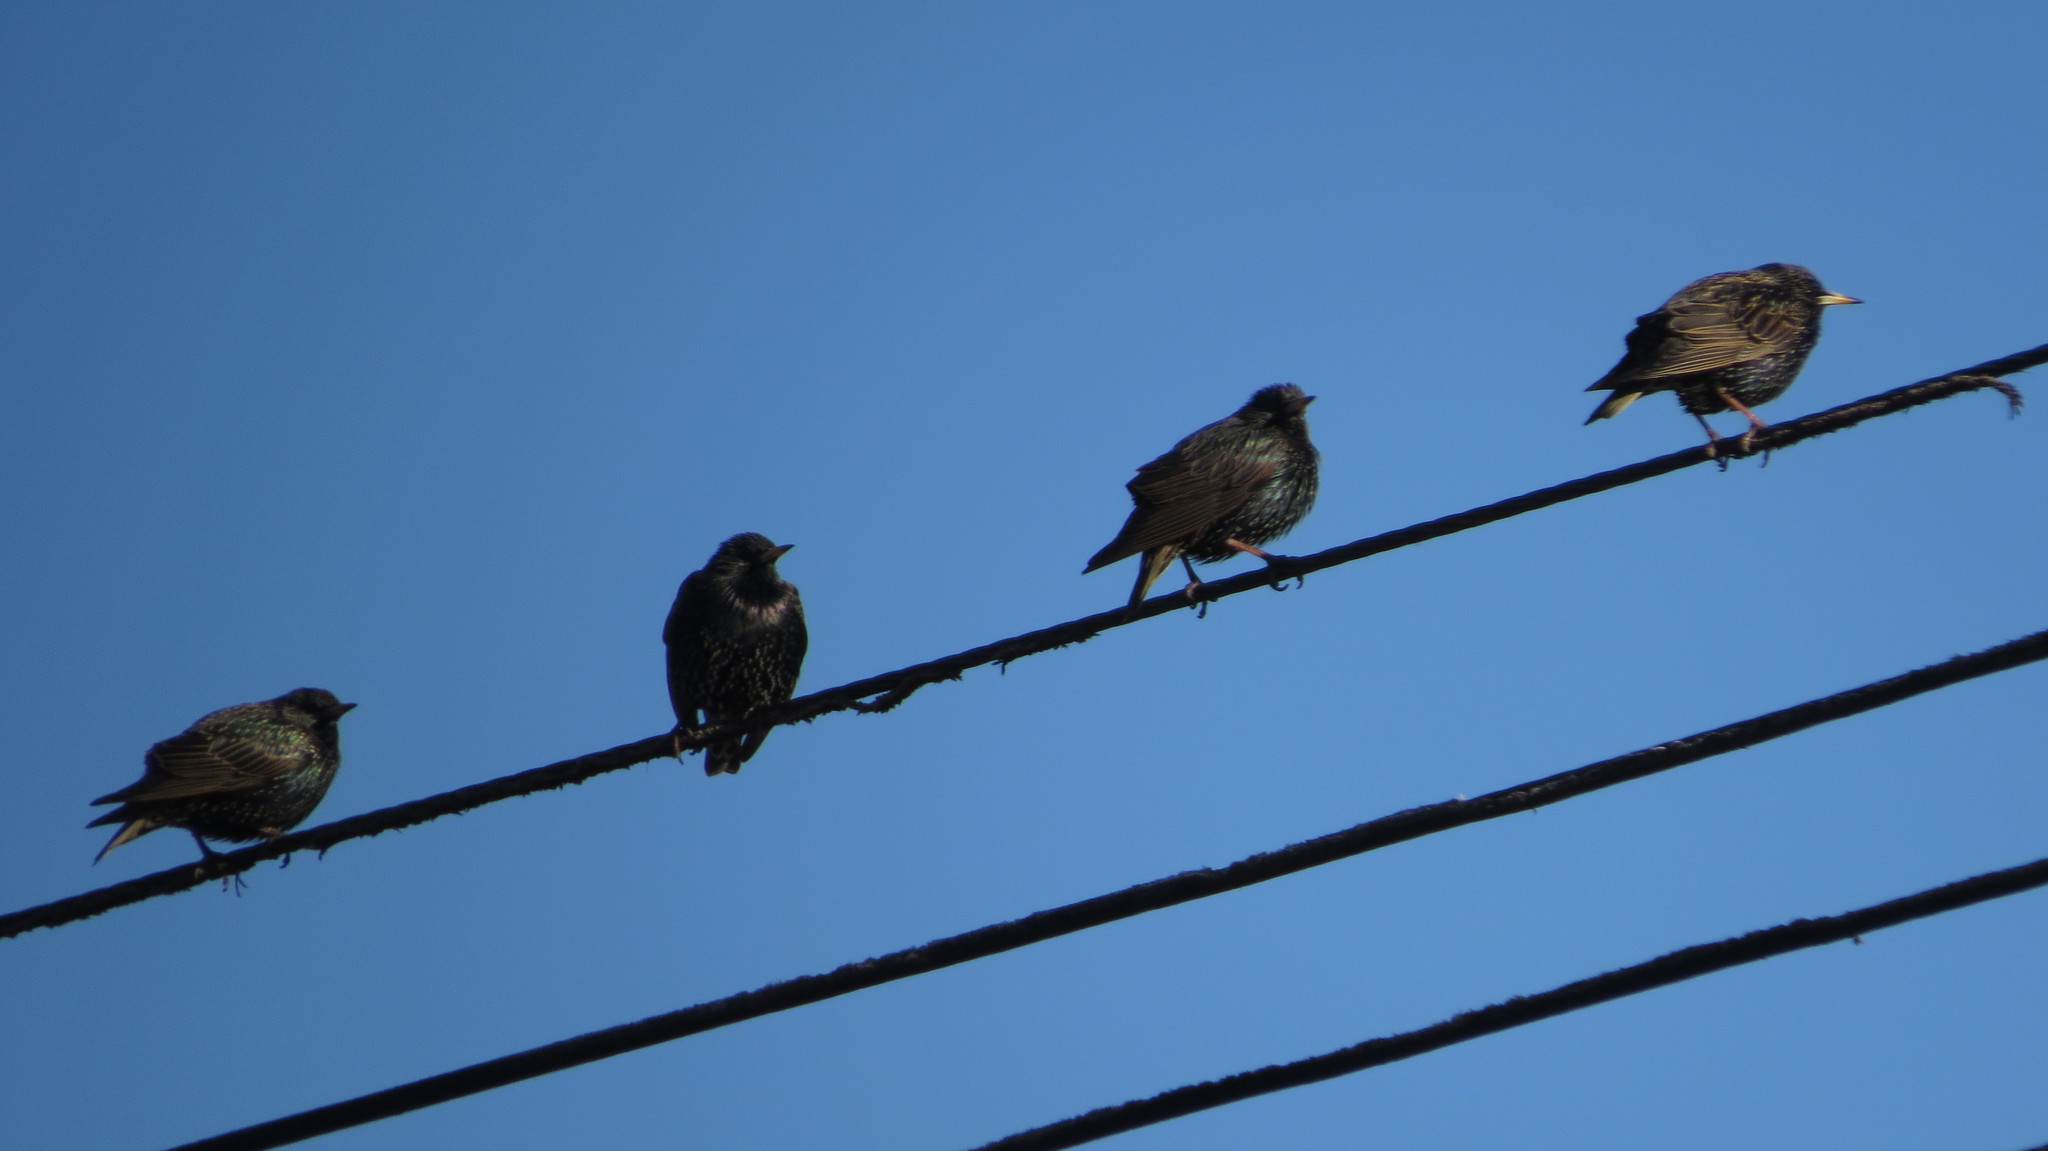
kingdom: Animalia
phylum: Chordata
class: Aves
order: Passeriformes
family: Sturnidae
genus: Sturnus
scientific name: Sturnus vulgaris
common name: Common starling
